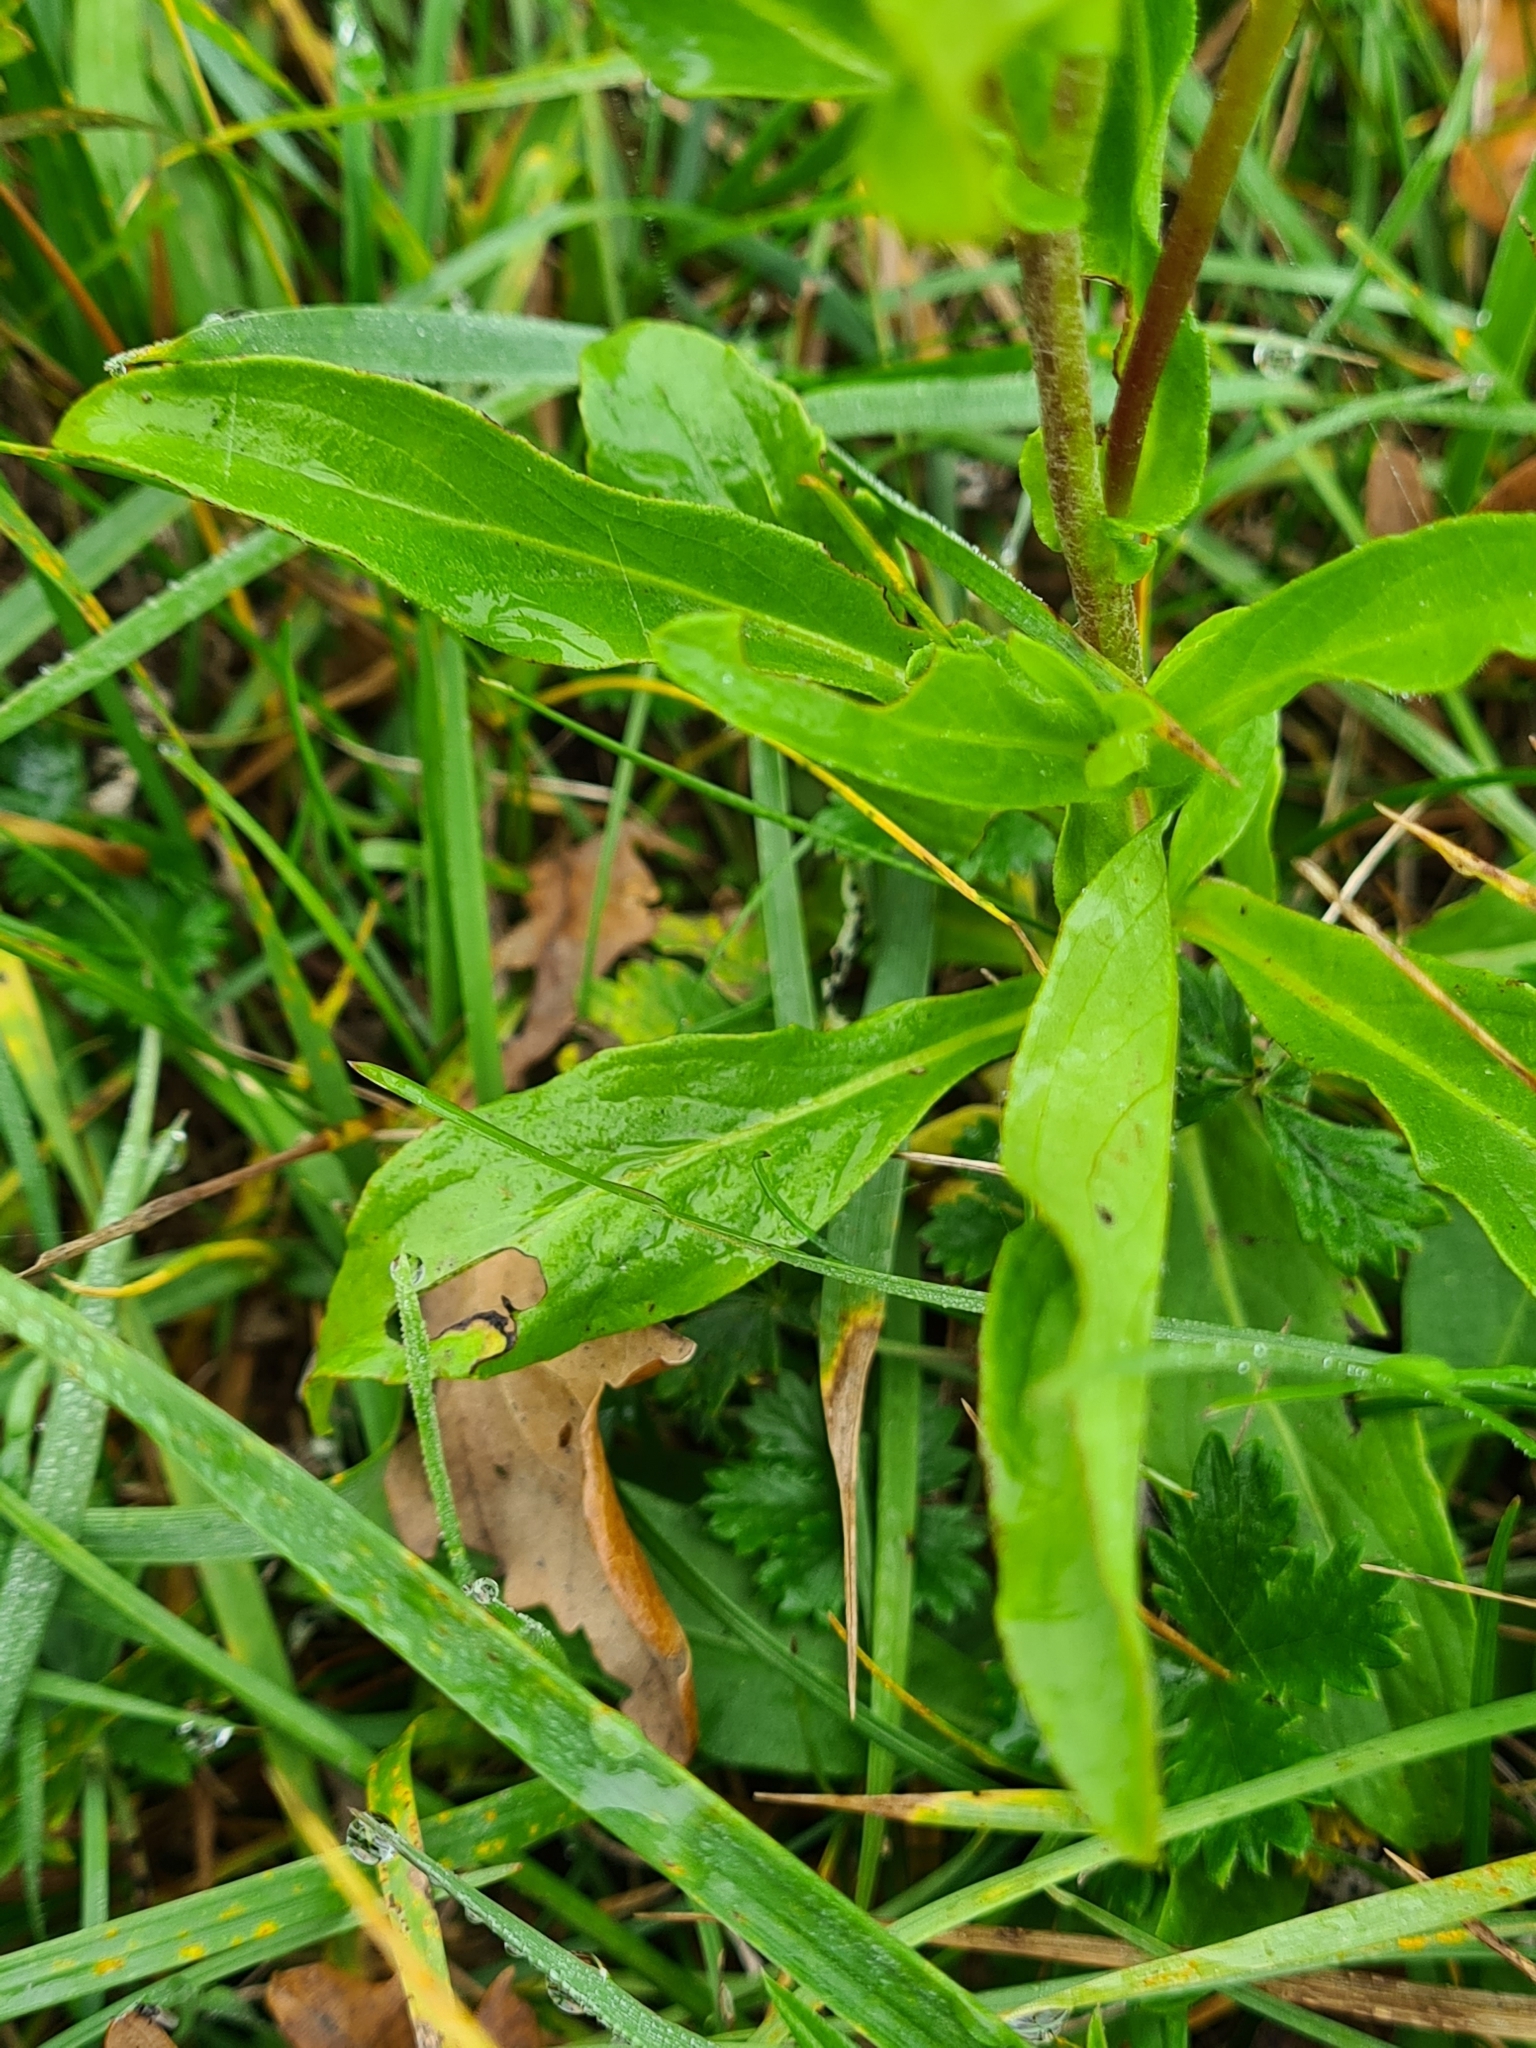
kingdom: Plantae
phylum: Tracheophyta
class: Magnoliopsida
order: Asterales
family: Asteraceae
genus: Pentanema
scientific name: Pentanema britannicum
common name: British elecampane
